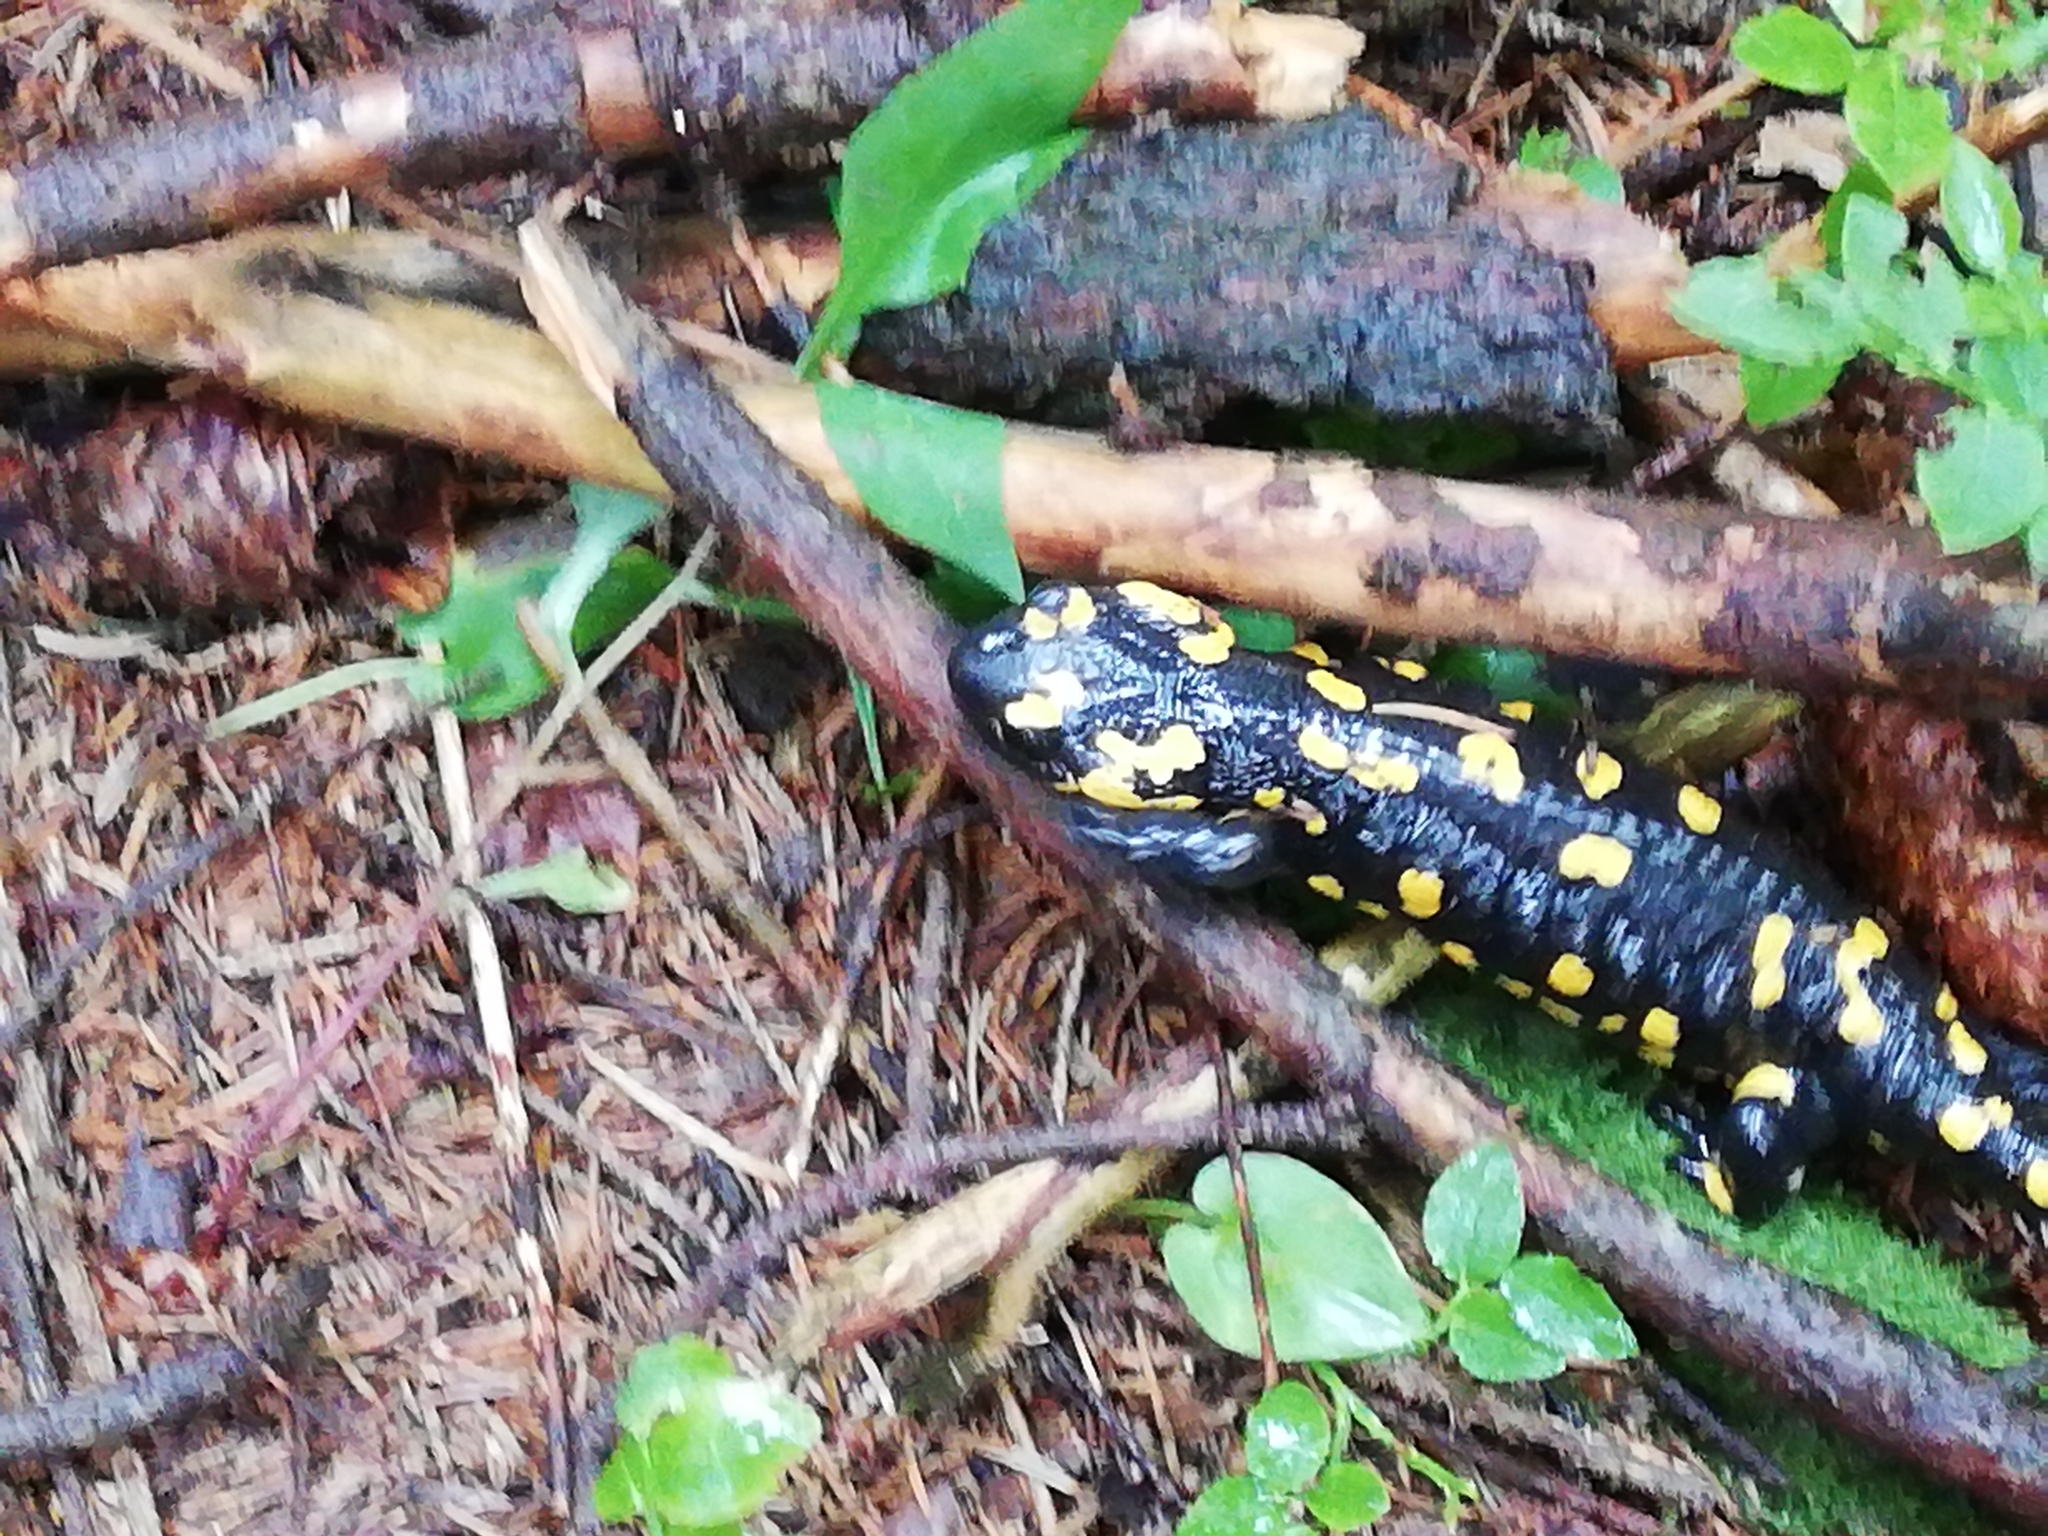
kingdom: Animalia
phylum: Chordata
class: Amphibia
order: Caudata
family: Salamandridae
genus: Salamandra
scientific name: Salamandra salamandra
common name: Fire salamander
